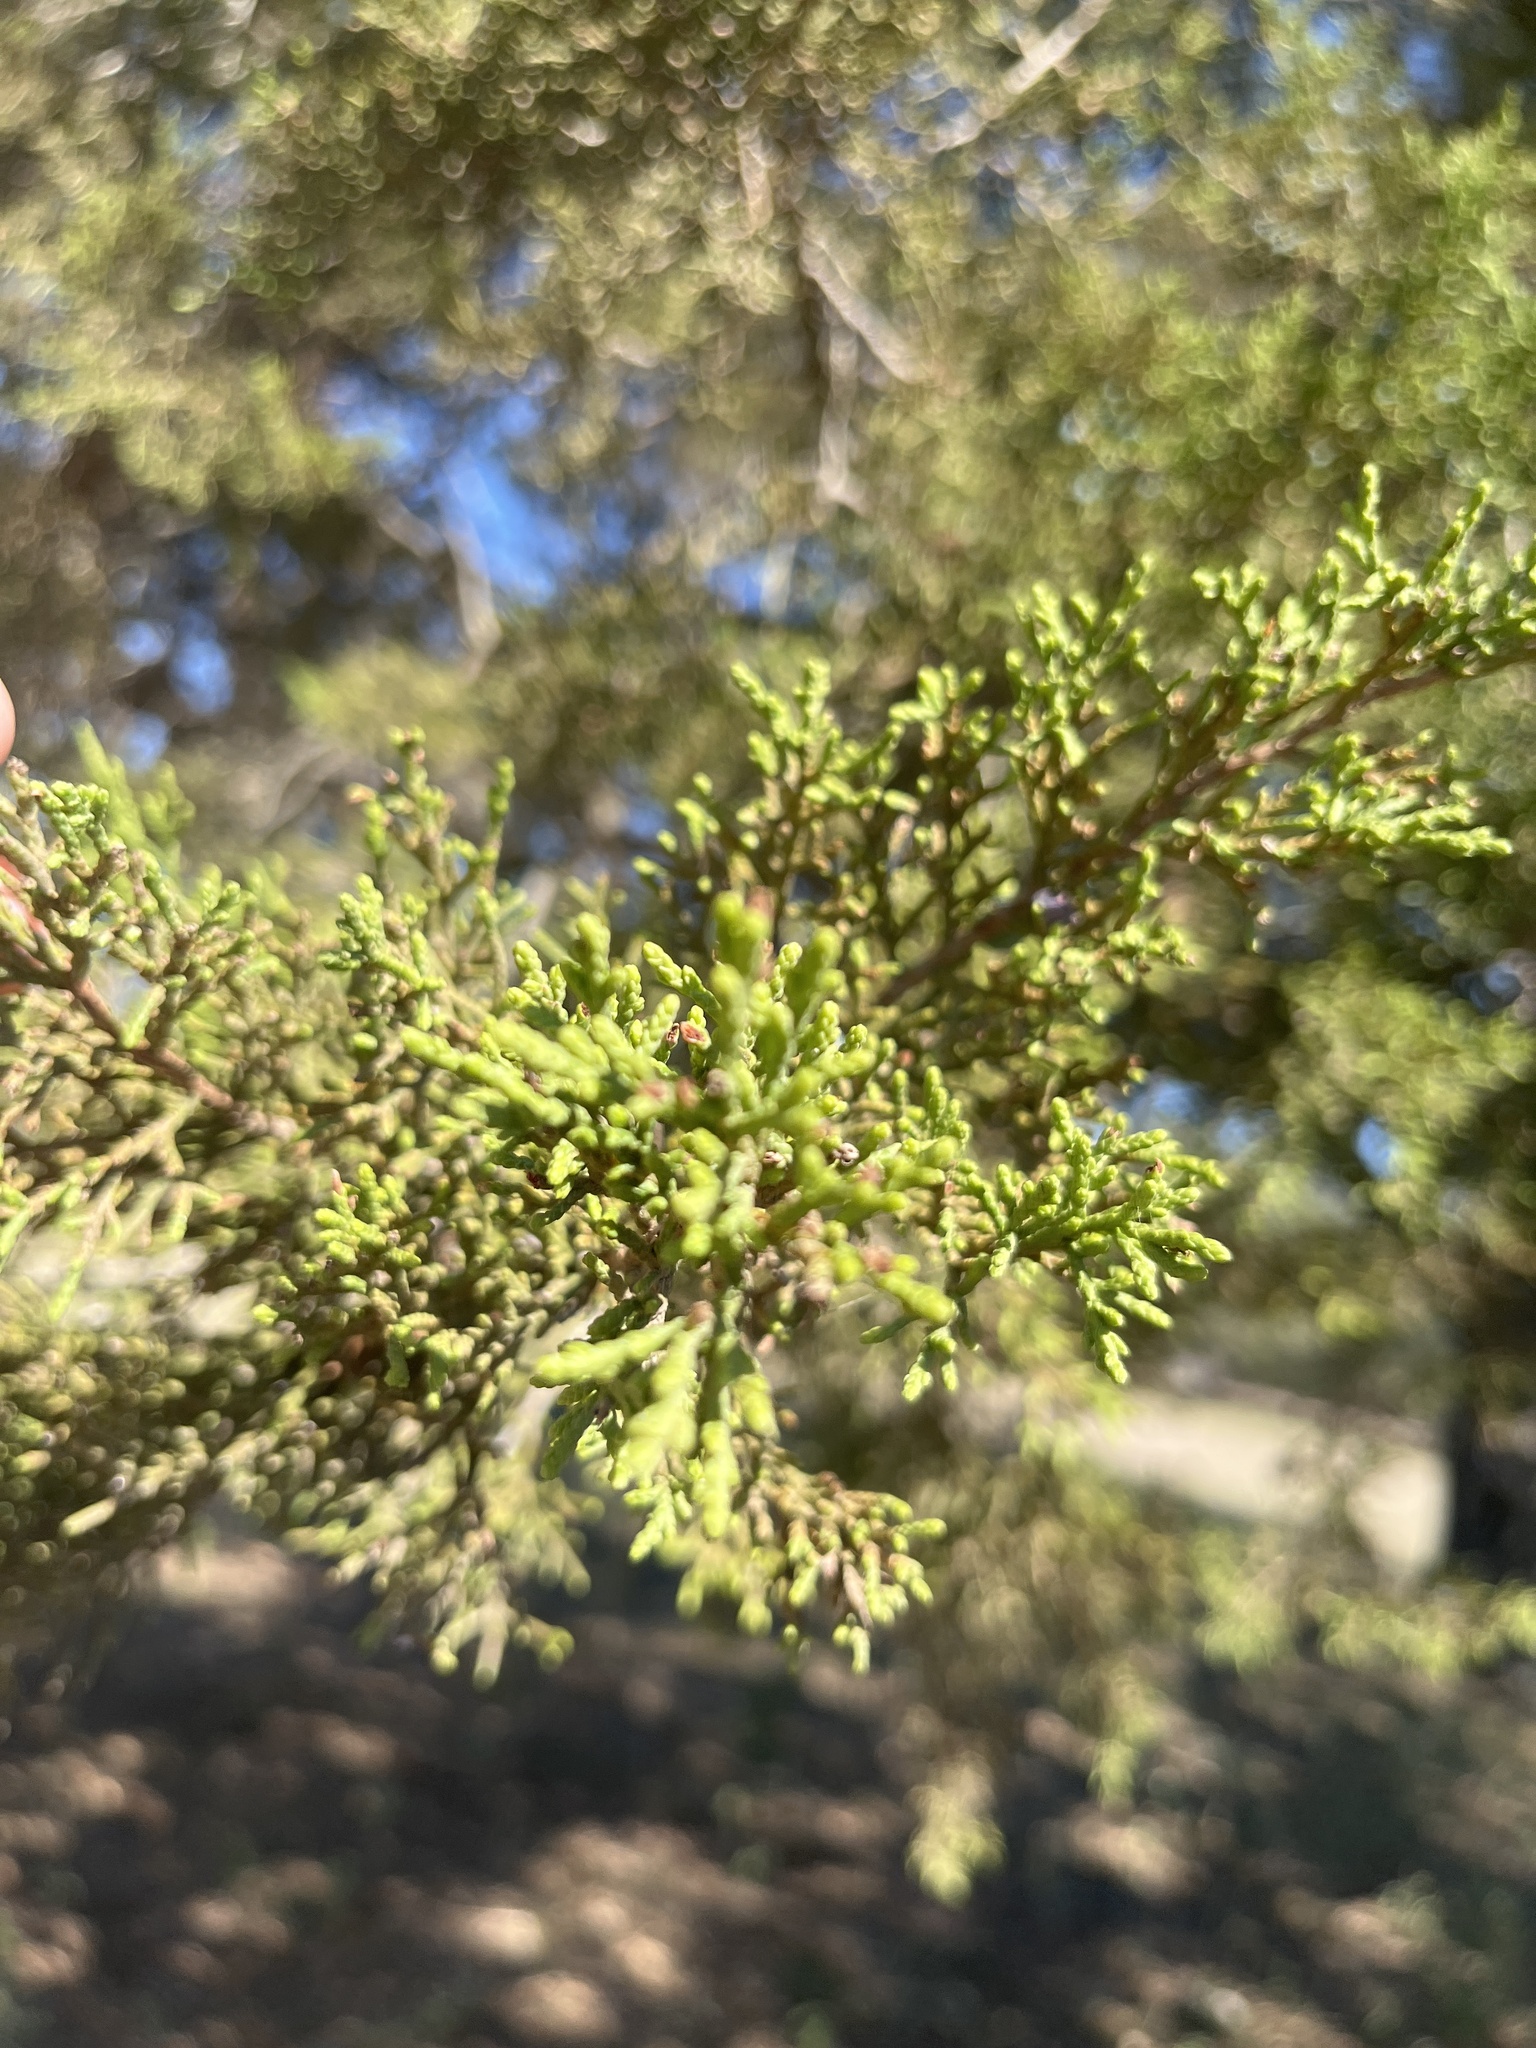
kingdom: Plantae
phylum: Tracheophyta
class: Pinopsida
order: Pinales
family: Cupressaceae
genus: Juniperus
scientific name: Juniperus ashei
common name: Mexican juniper
